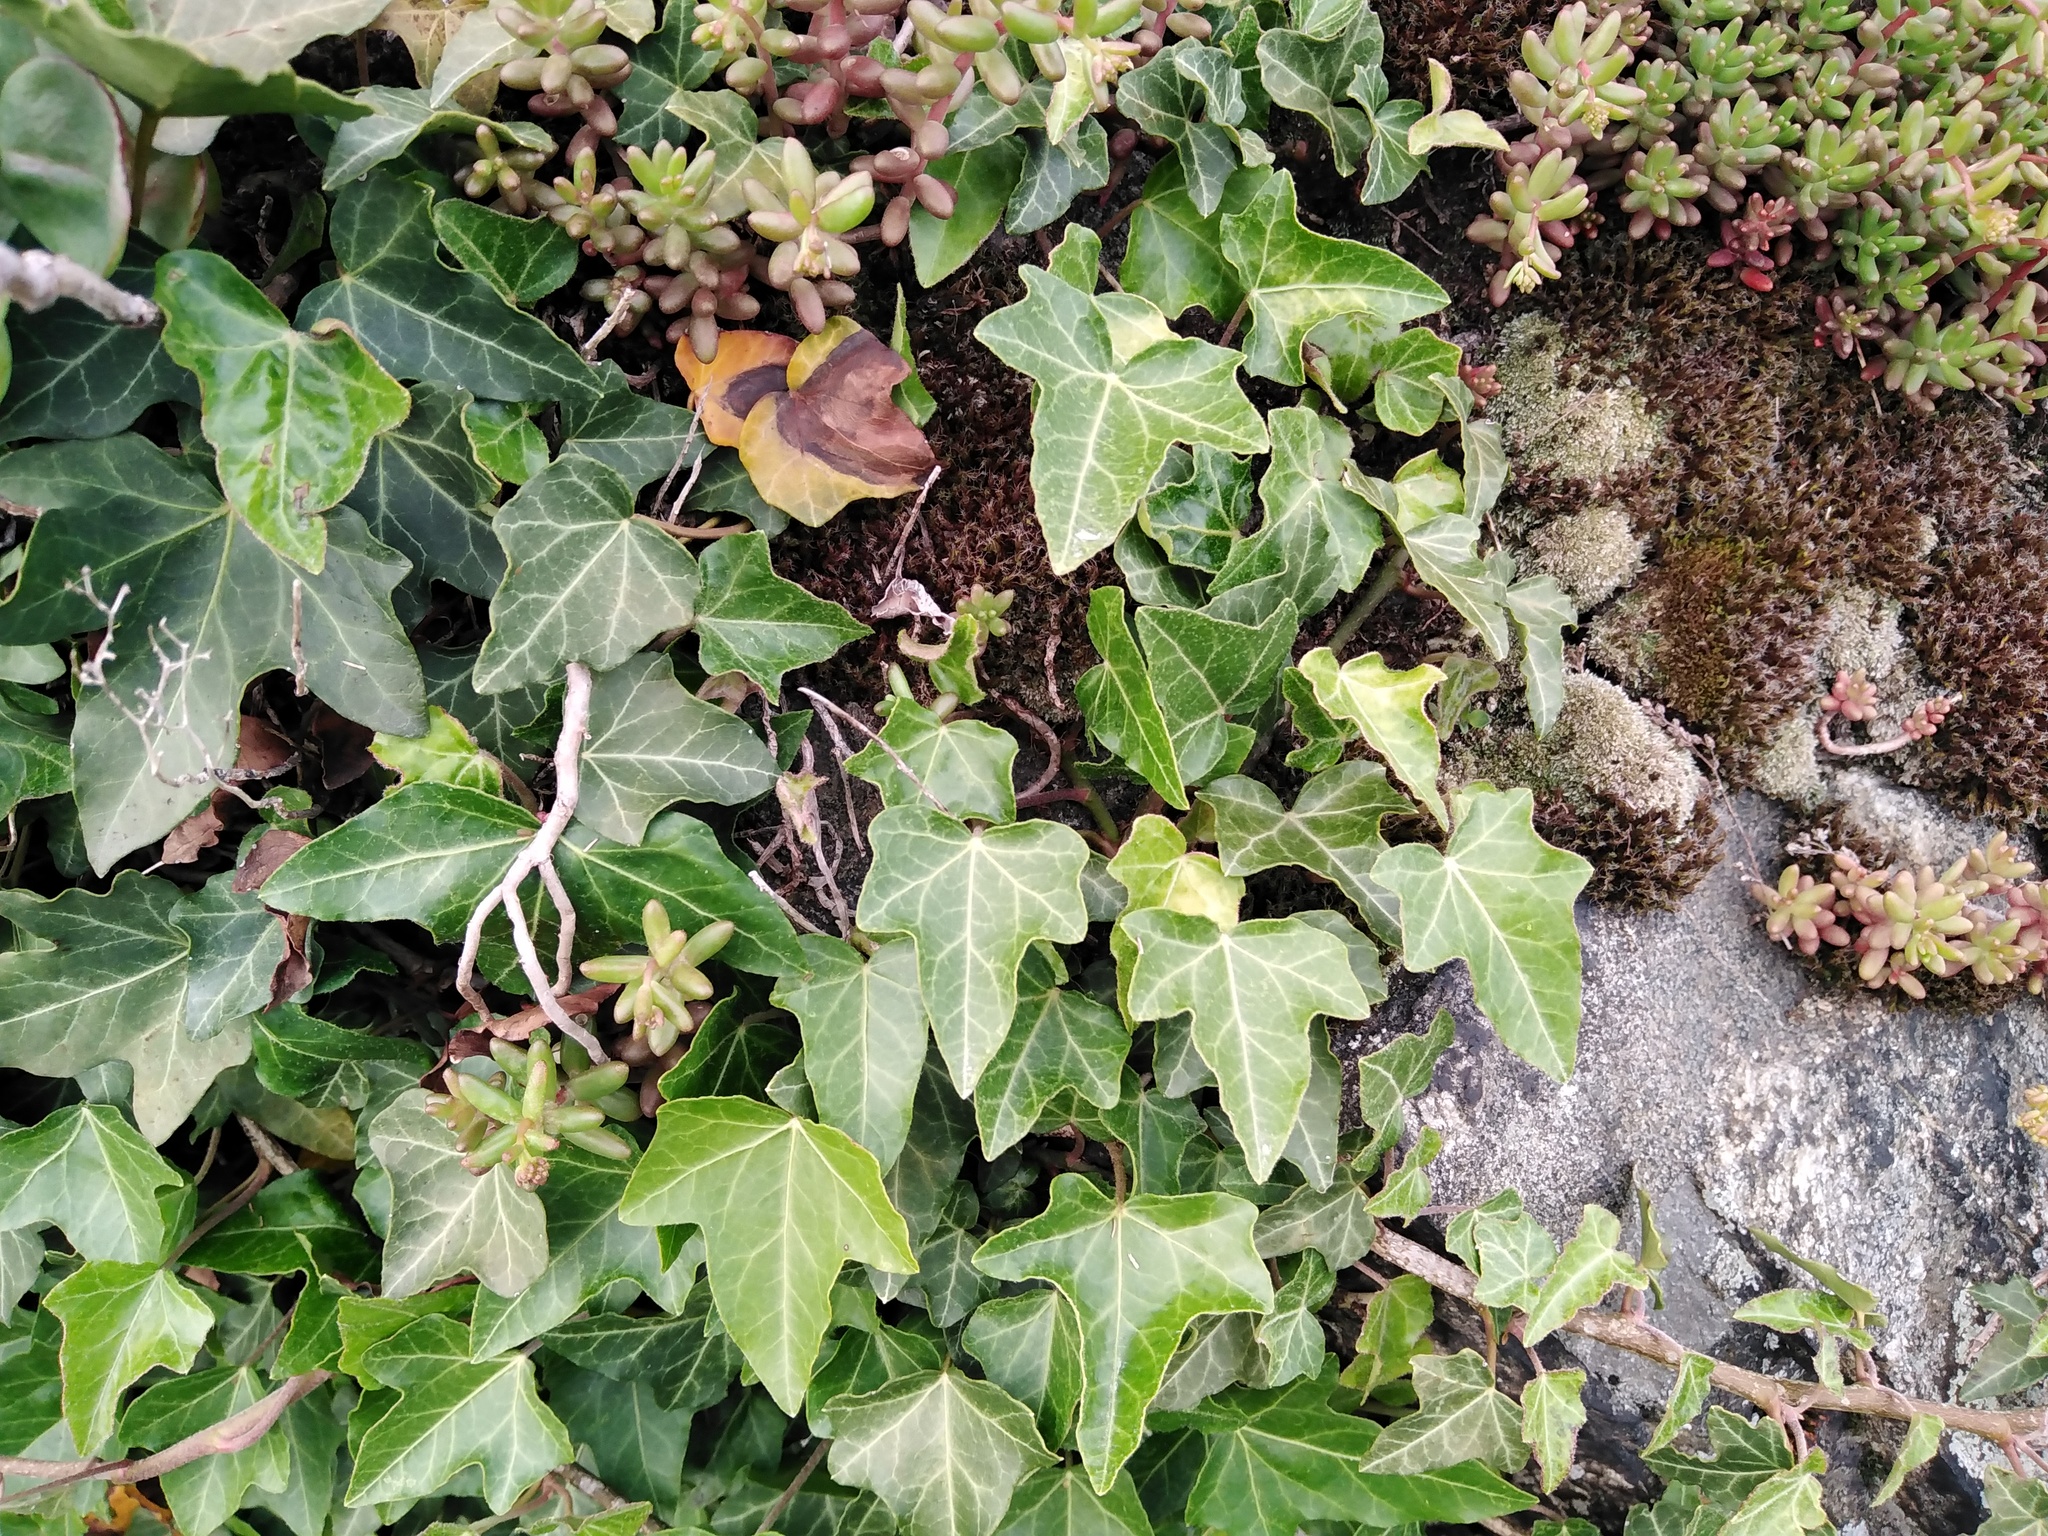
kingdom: Plantae
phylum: Tracheophyta
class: Magnoliopsida
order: Apiales
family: Araliaceae
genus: Hedera
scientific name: Hedera helix
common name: Ivy
